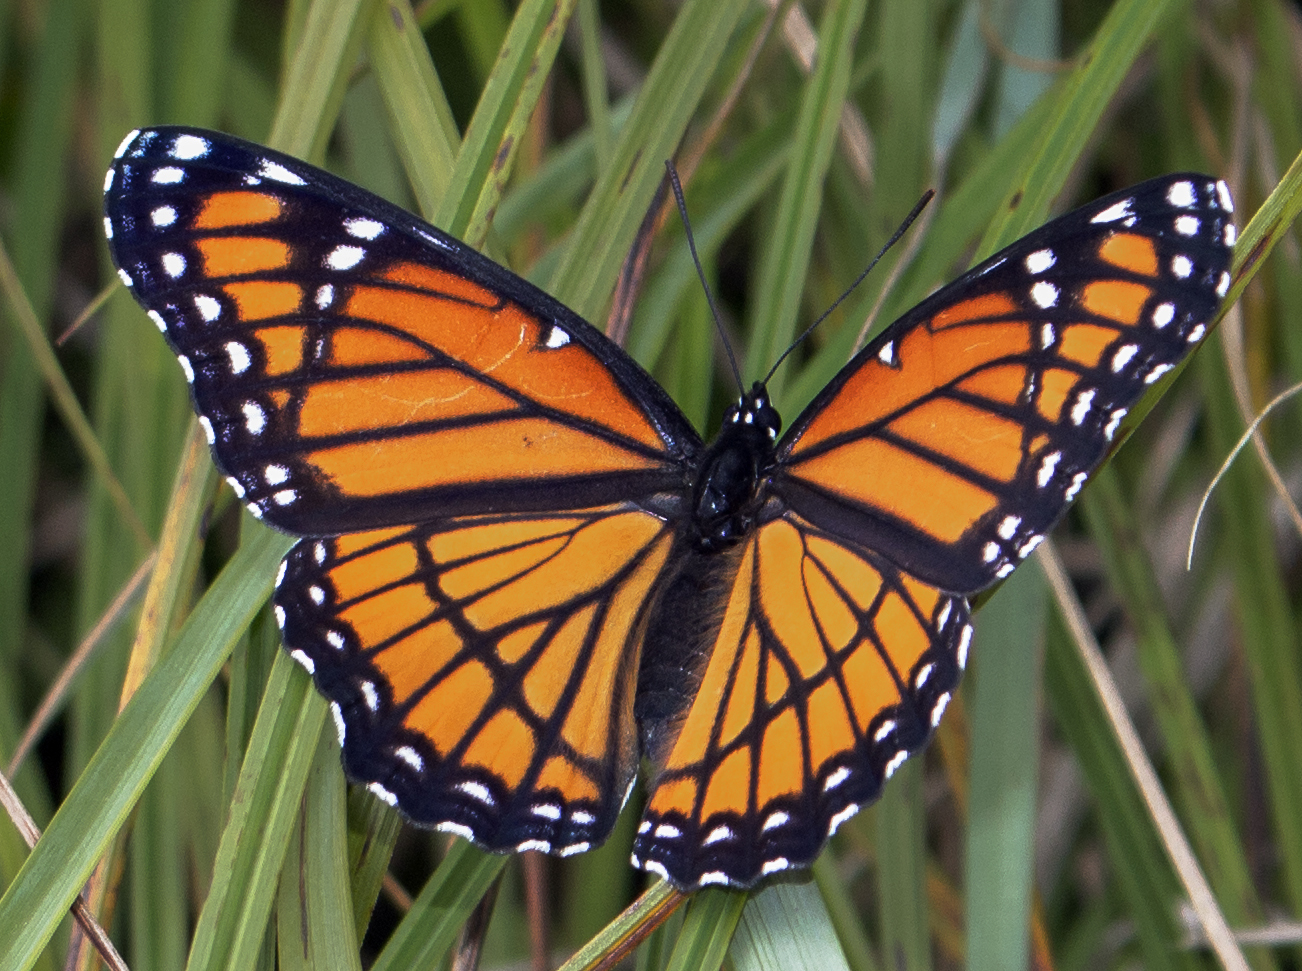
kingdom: Animalia
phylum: Arthropoda
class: Insecta
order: Lepidoptera
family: Nymphalidae
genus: Limenitis
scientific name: Limenitis archippus
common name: Viceroy
